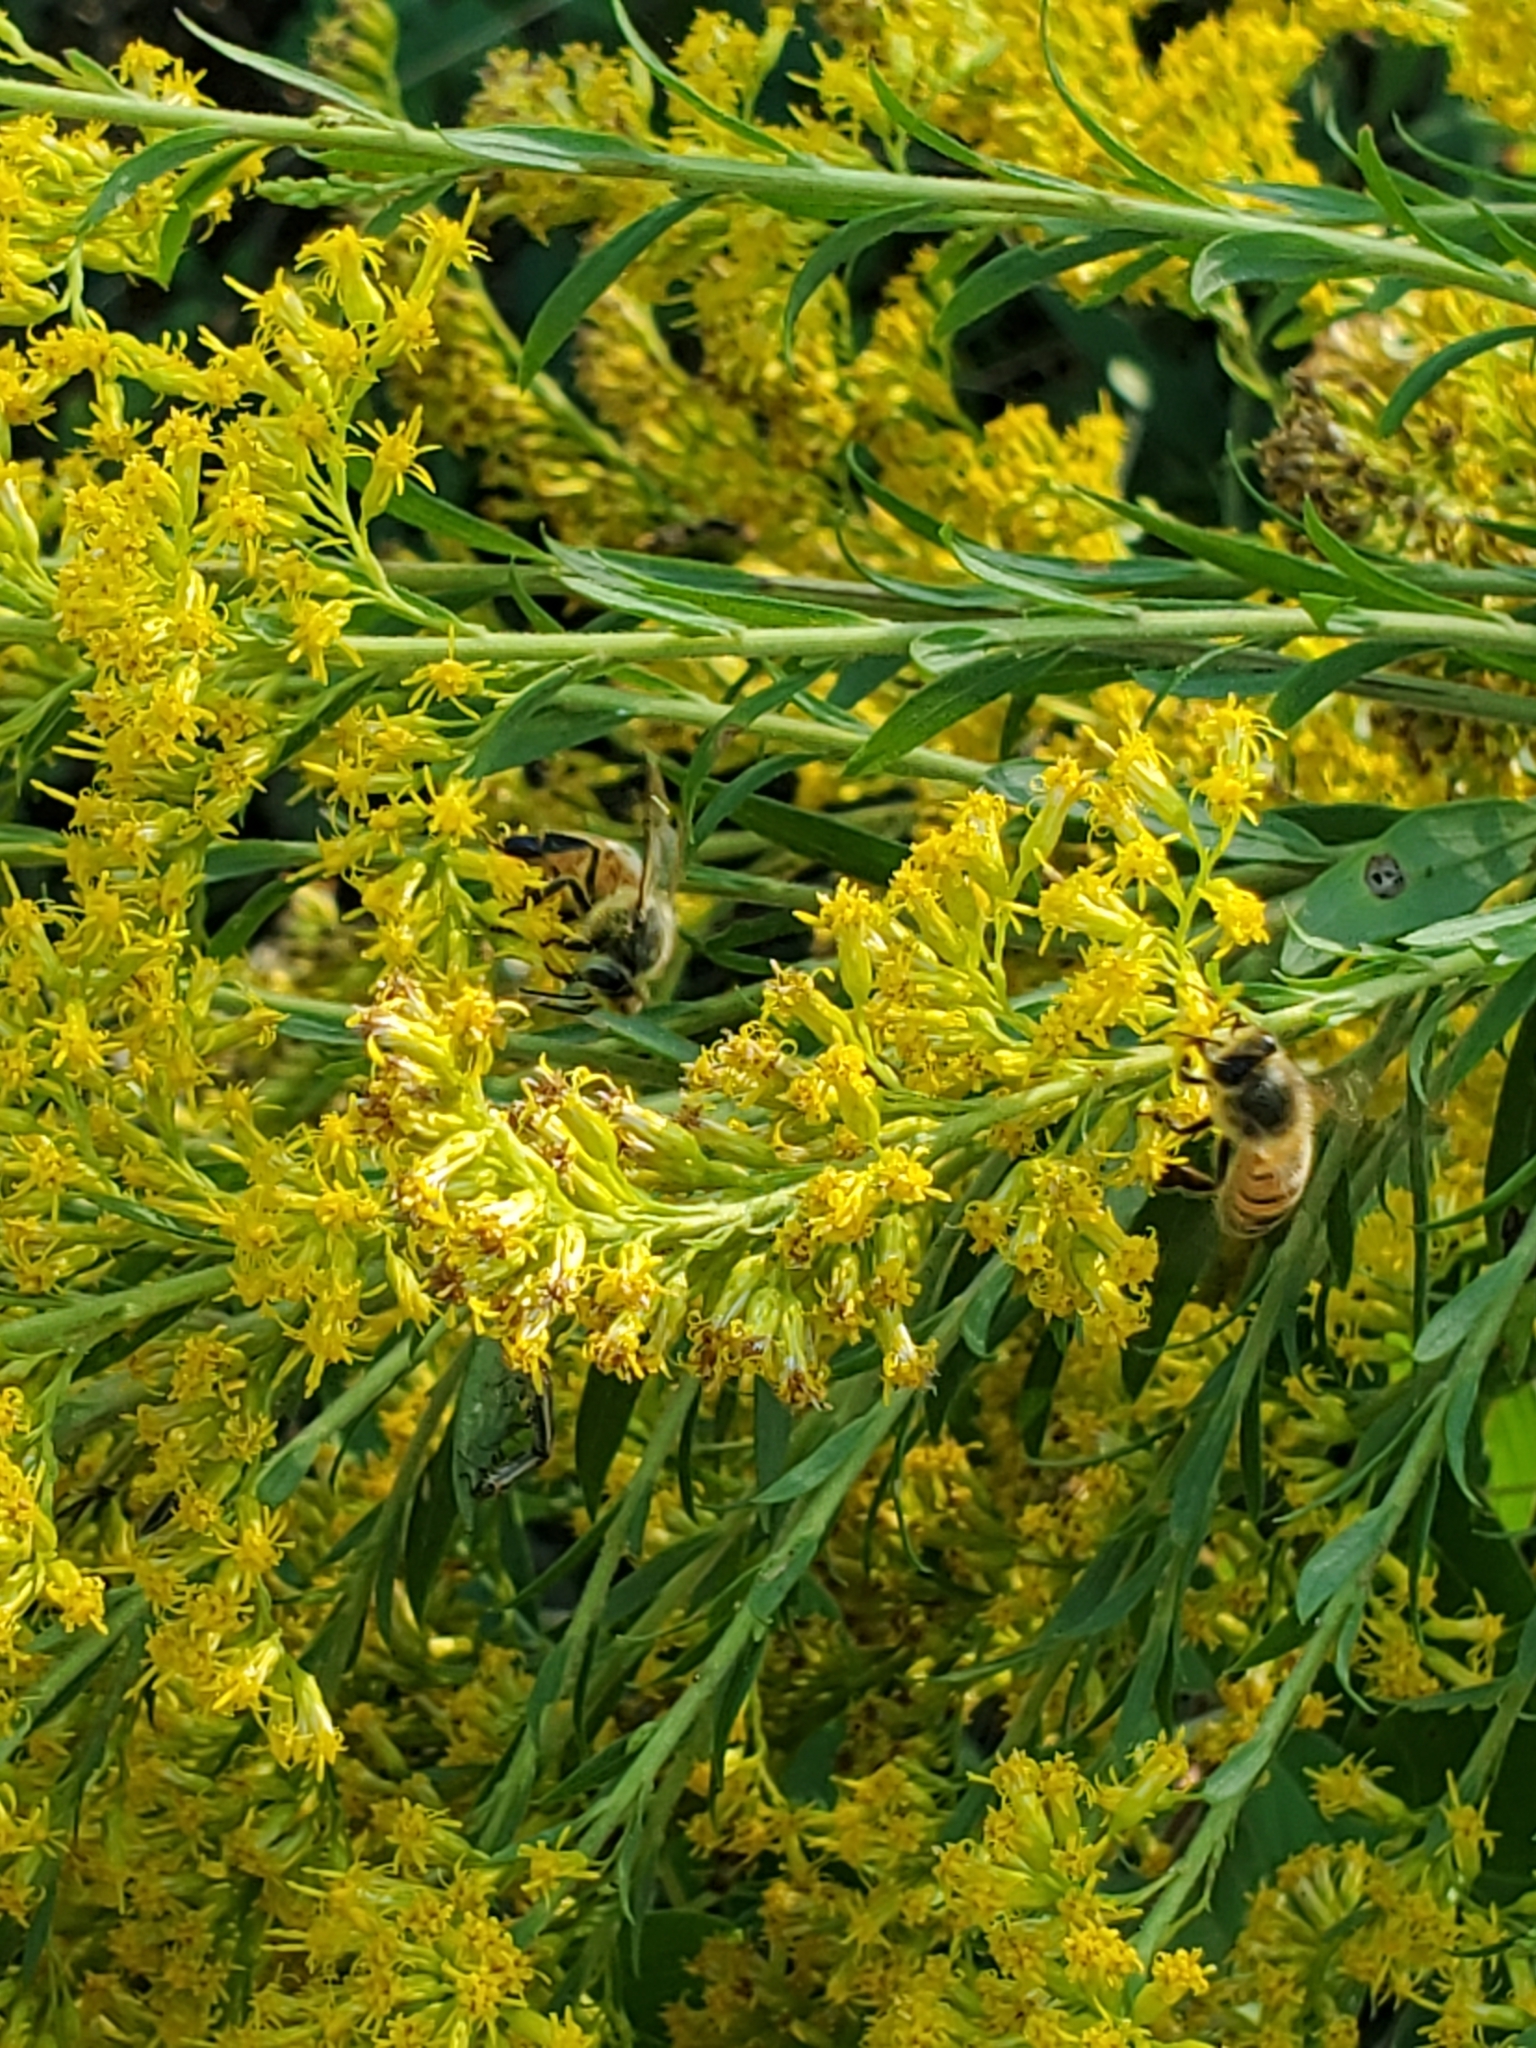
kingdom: Animalia
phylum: Arthropoda
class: Insecta
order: Hymenoptera
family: Apidae
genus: Apis
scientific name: Apis mellifera
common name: Honey bee
